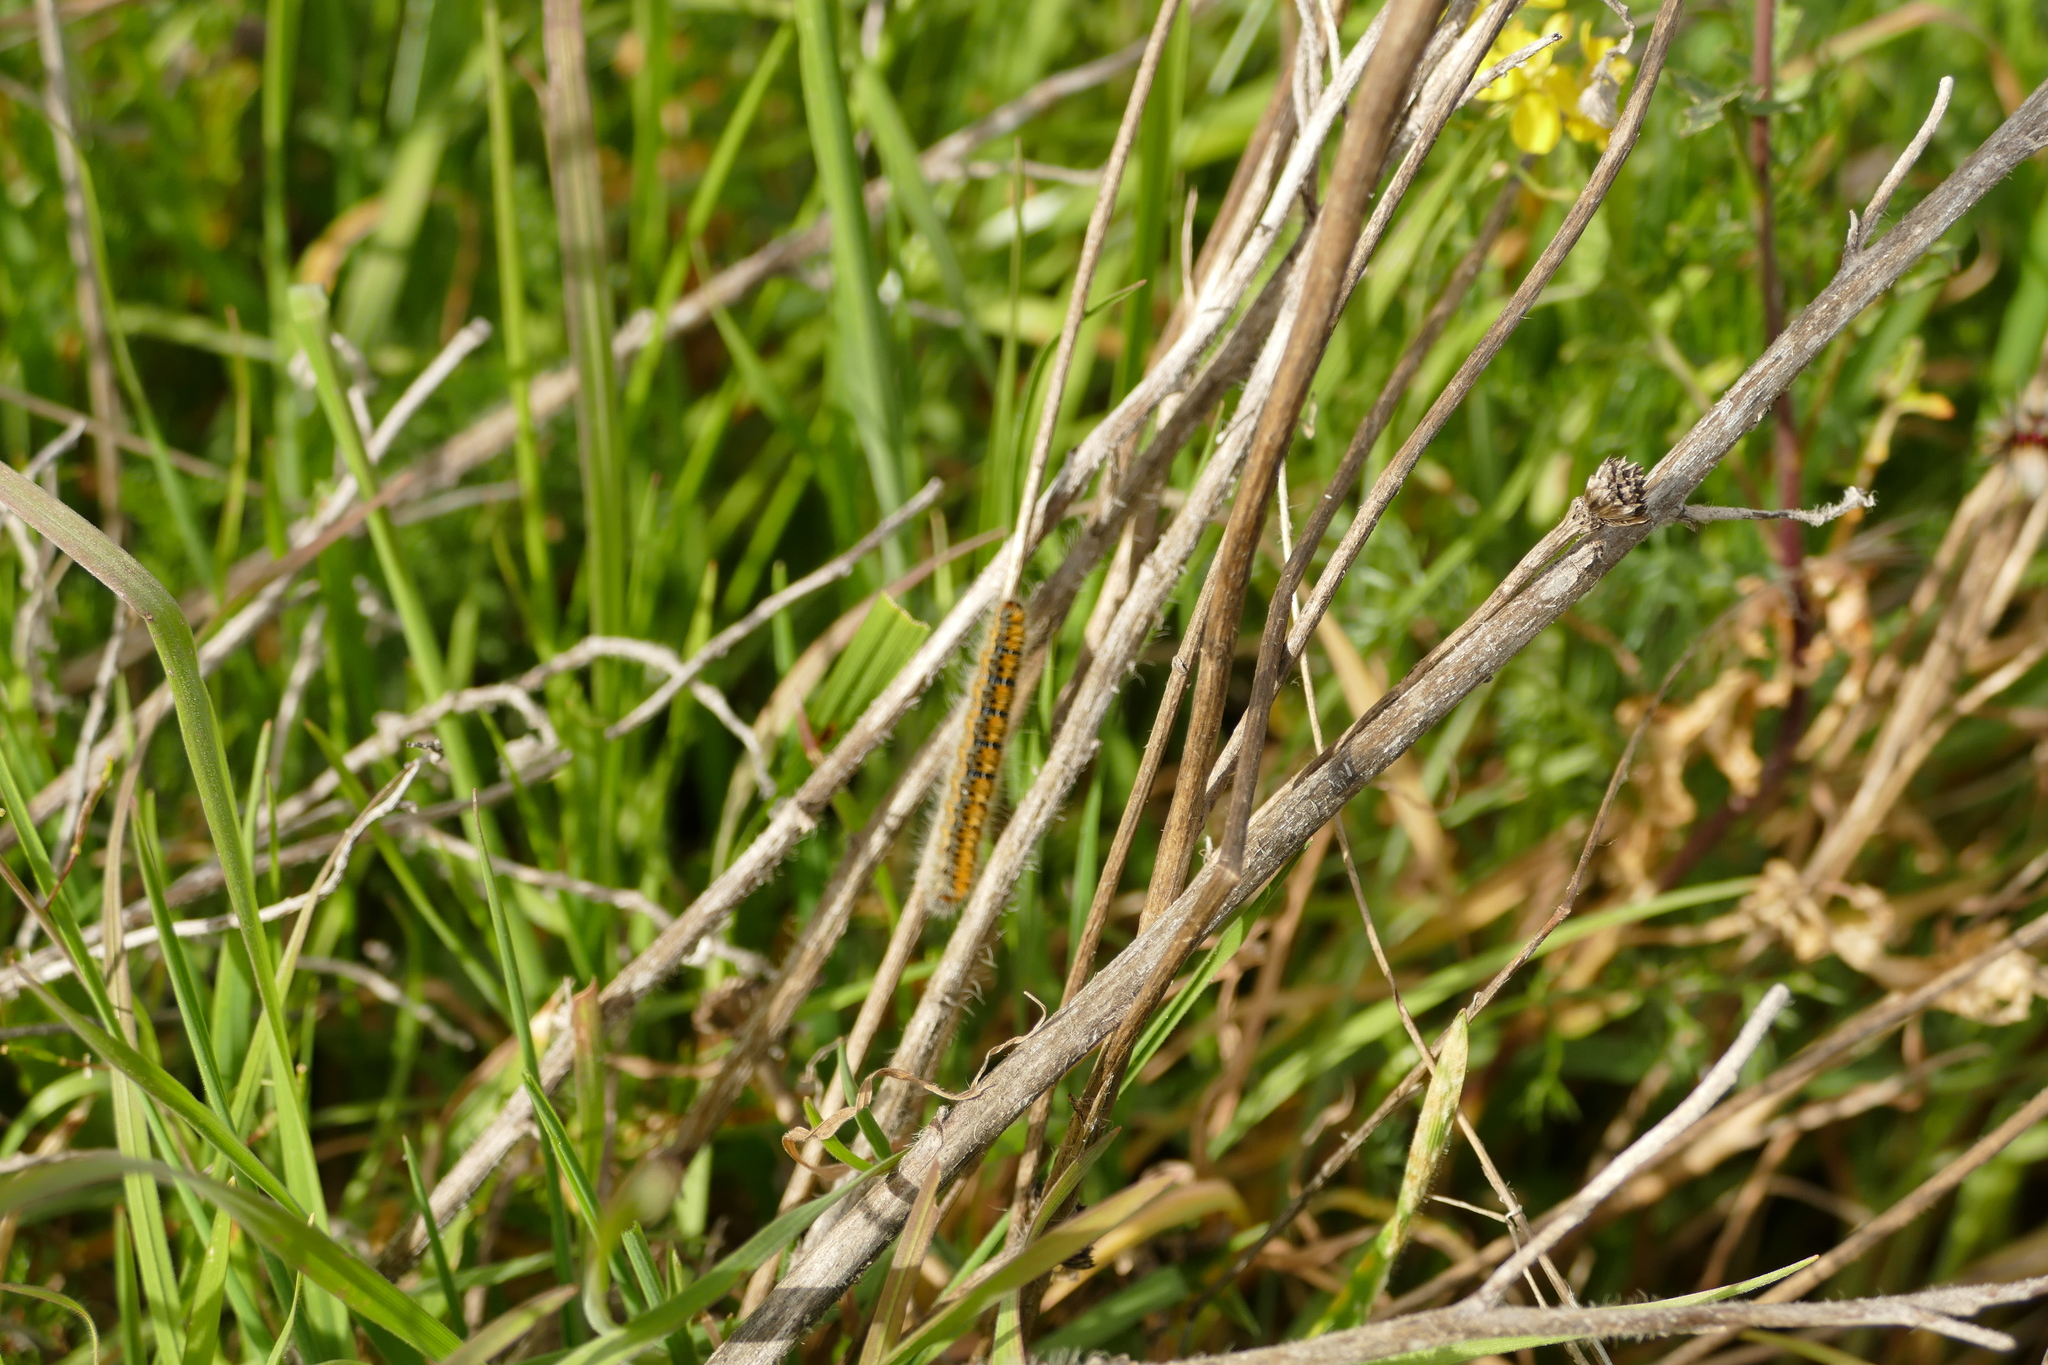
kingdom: Animalia
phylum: Arthropoda
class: Insecta
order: Lepidoptera
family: Lasiocampidae
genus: Lasiocampa
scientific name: Lasiocampa trifolii
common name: Grass eggar
